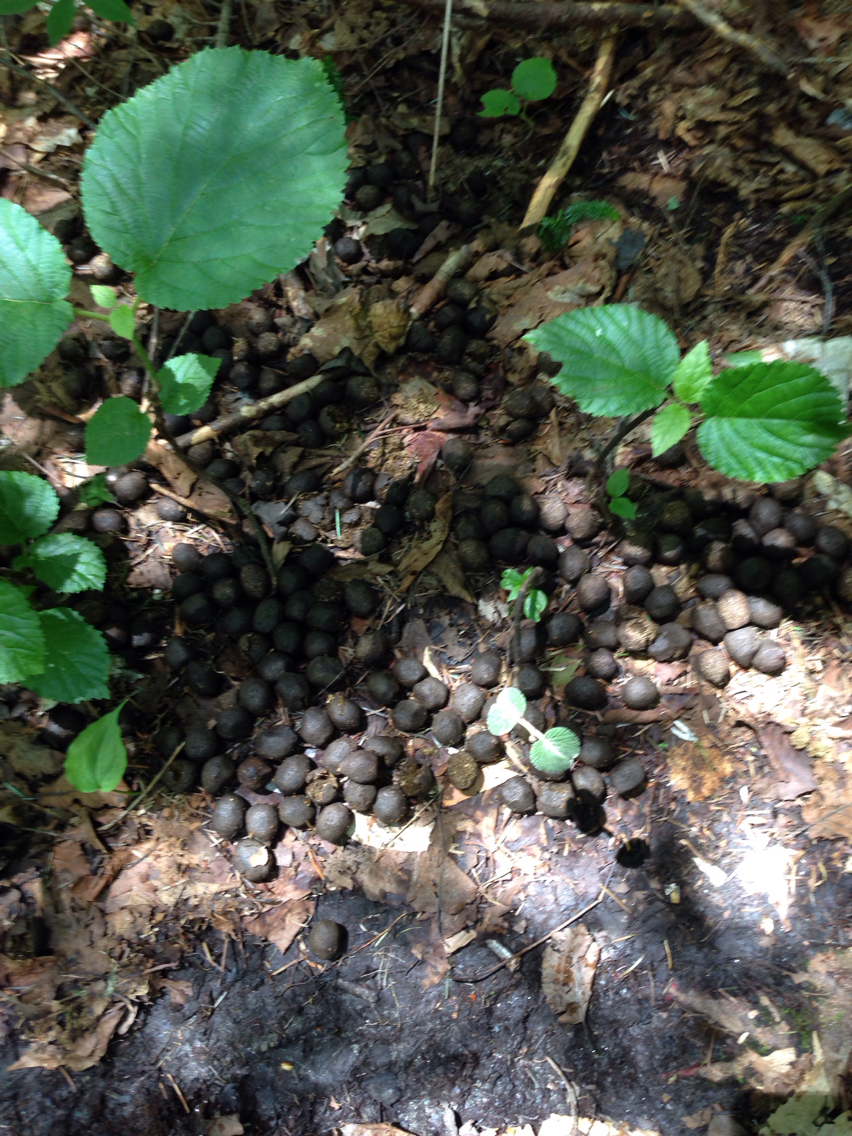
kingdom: Animalia
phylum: Chordata
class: Mammalia
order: Artiodactyla
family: Cervidae
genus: Alces
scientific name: Alces alces
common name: Moose
